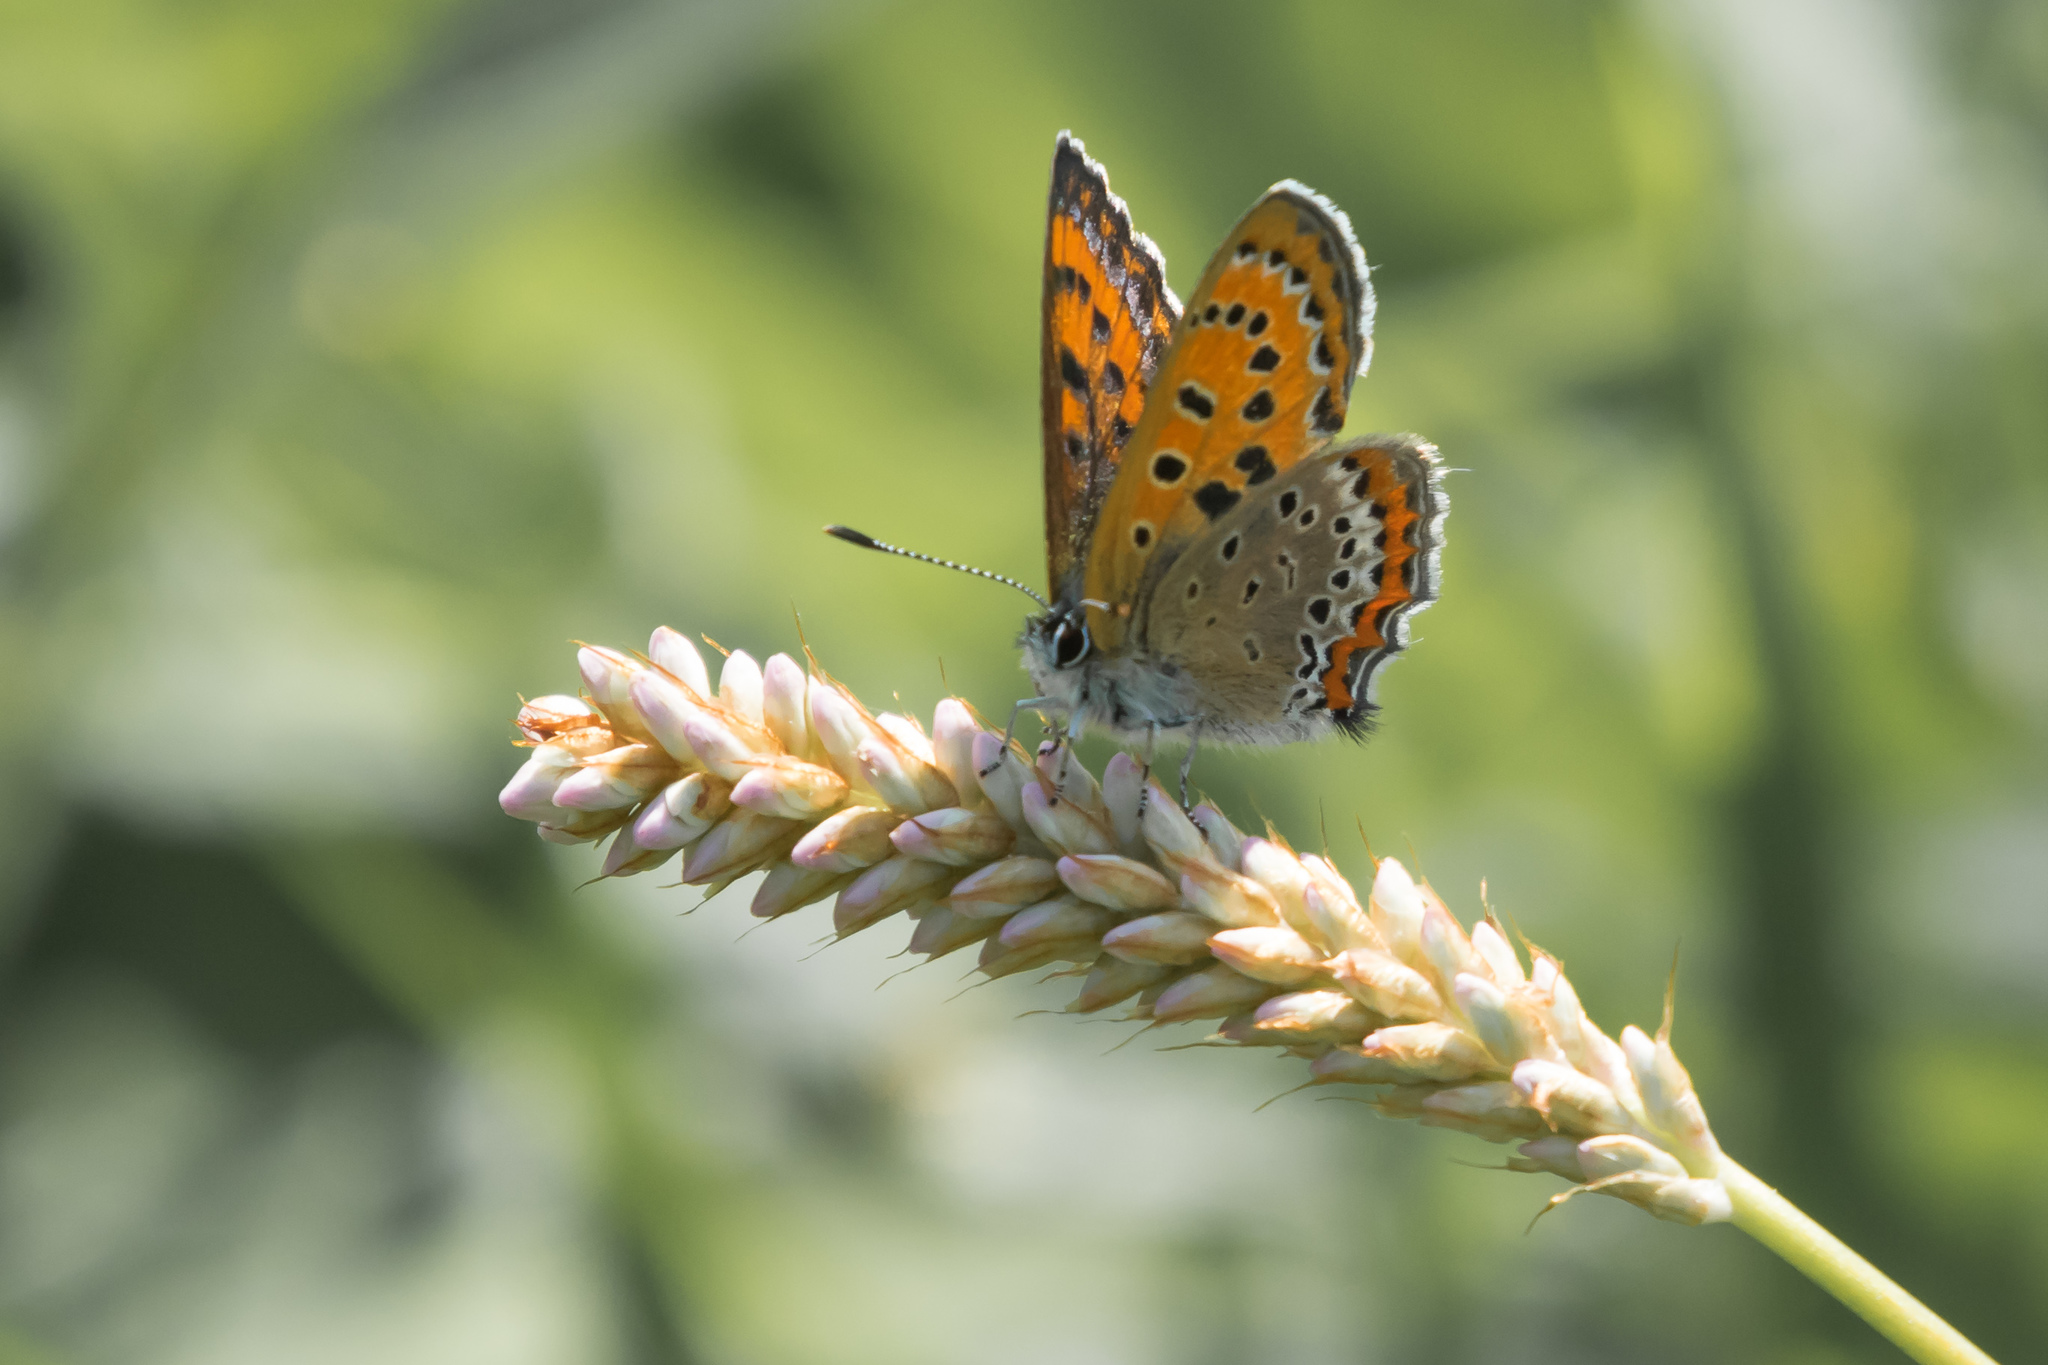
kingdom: Animalia
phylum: Arthropoda
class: Insecta
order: Lepidoptera
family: Lycaenidae
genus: Helleia
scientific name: Helleia helle
